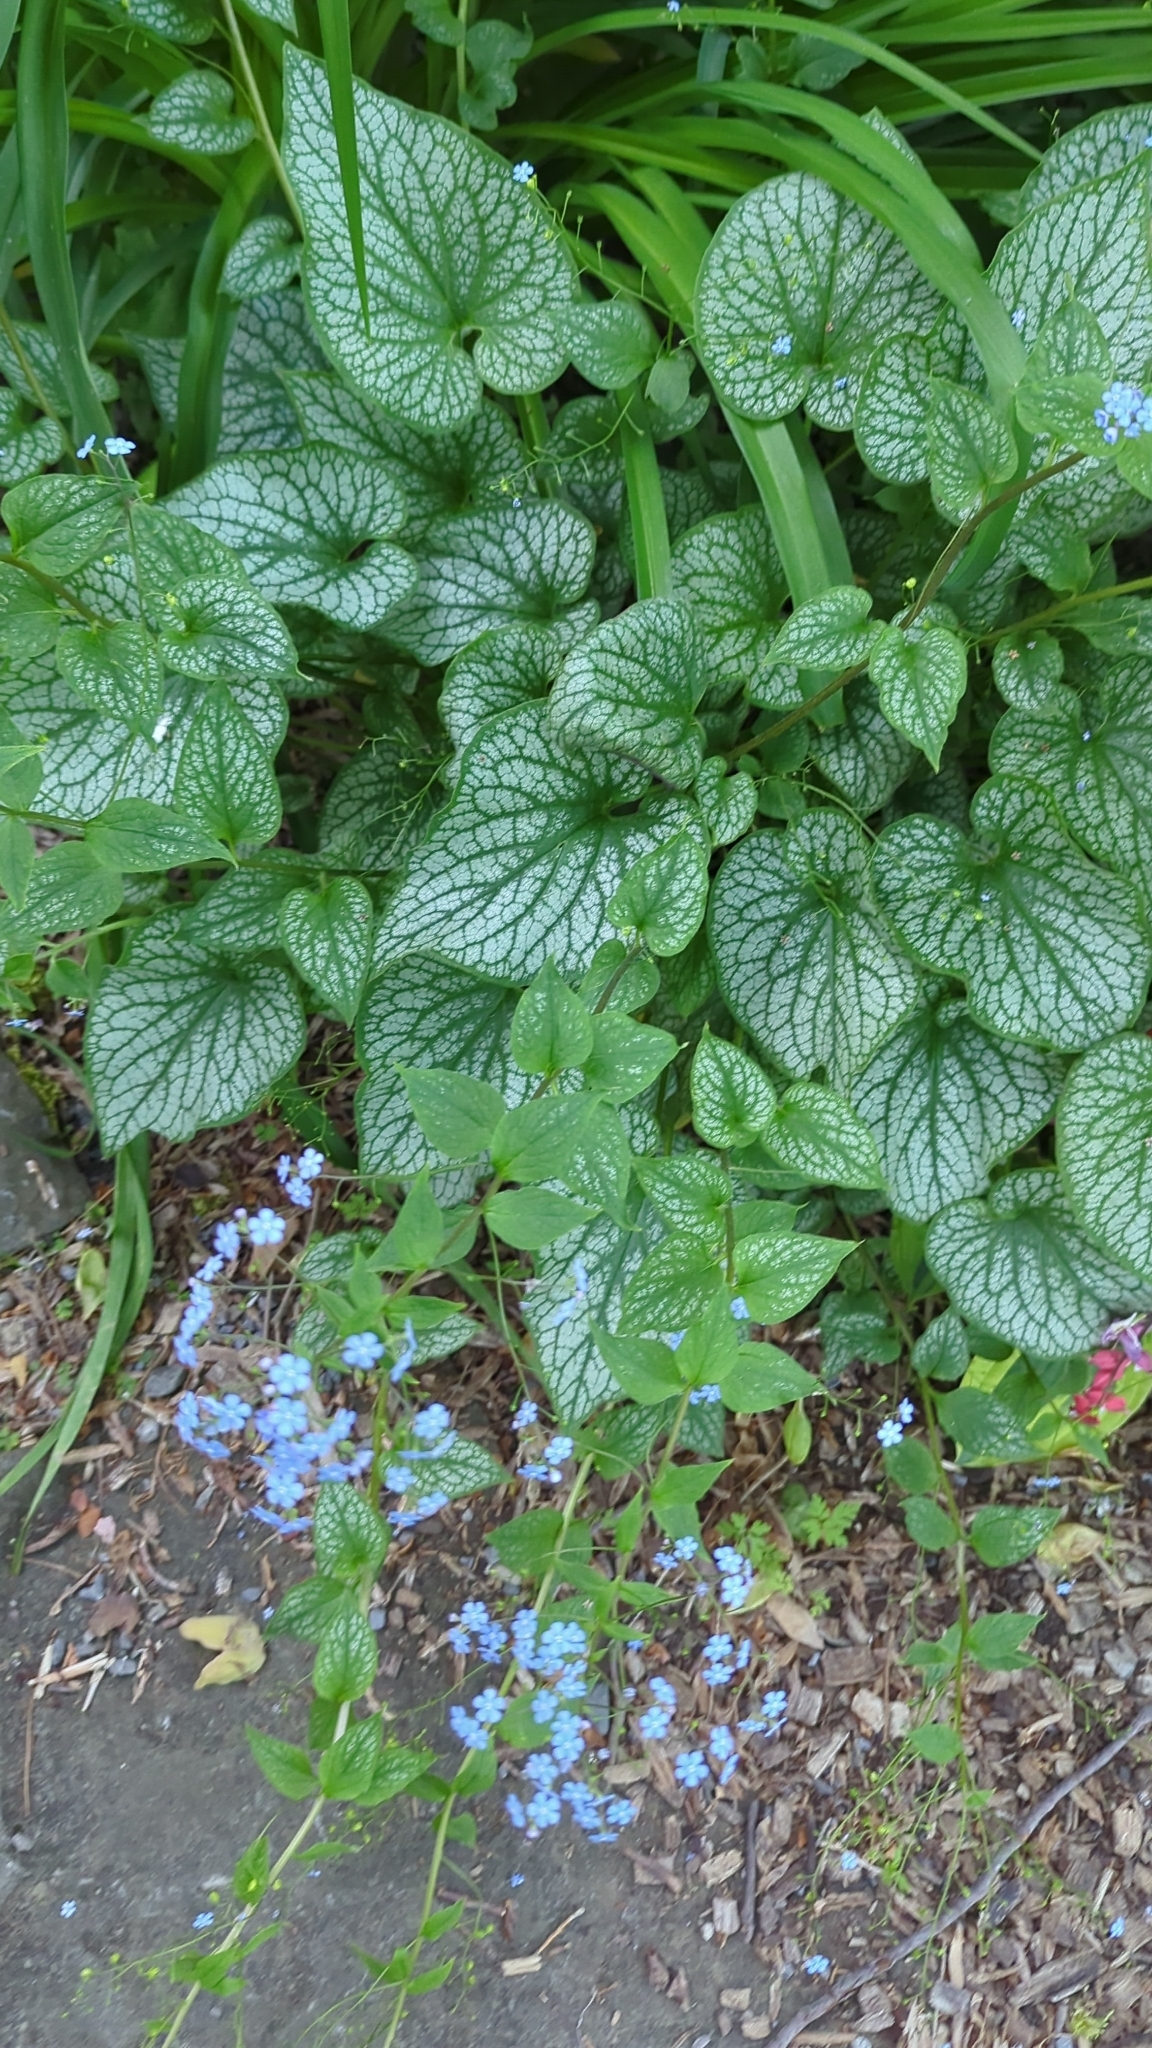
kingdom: Plantae
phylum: Tracheophyta
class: Magnoliopsida
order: Boraginales
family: Boraginaceae
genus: Brunnera
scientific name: Brunnera macrophylla
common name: Great forget-me-not
